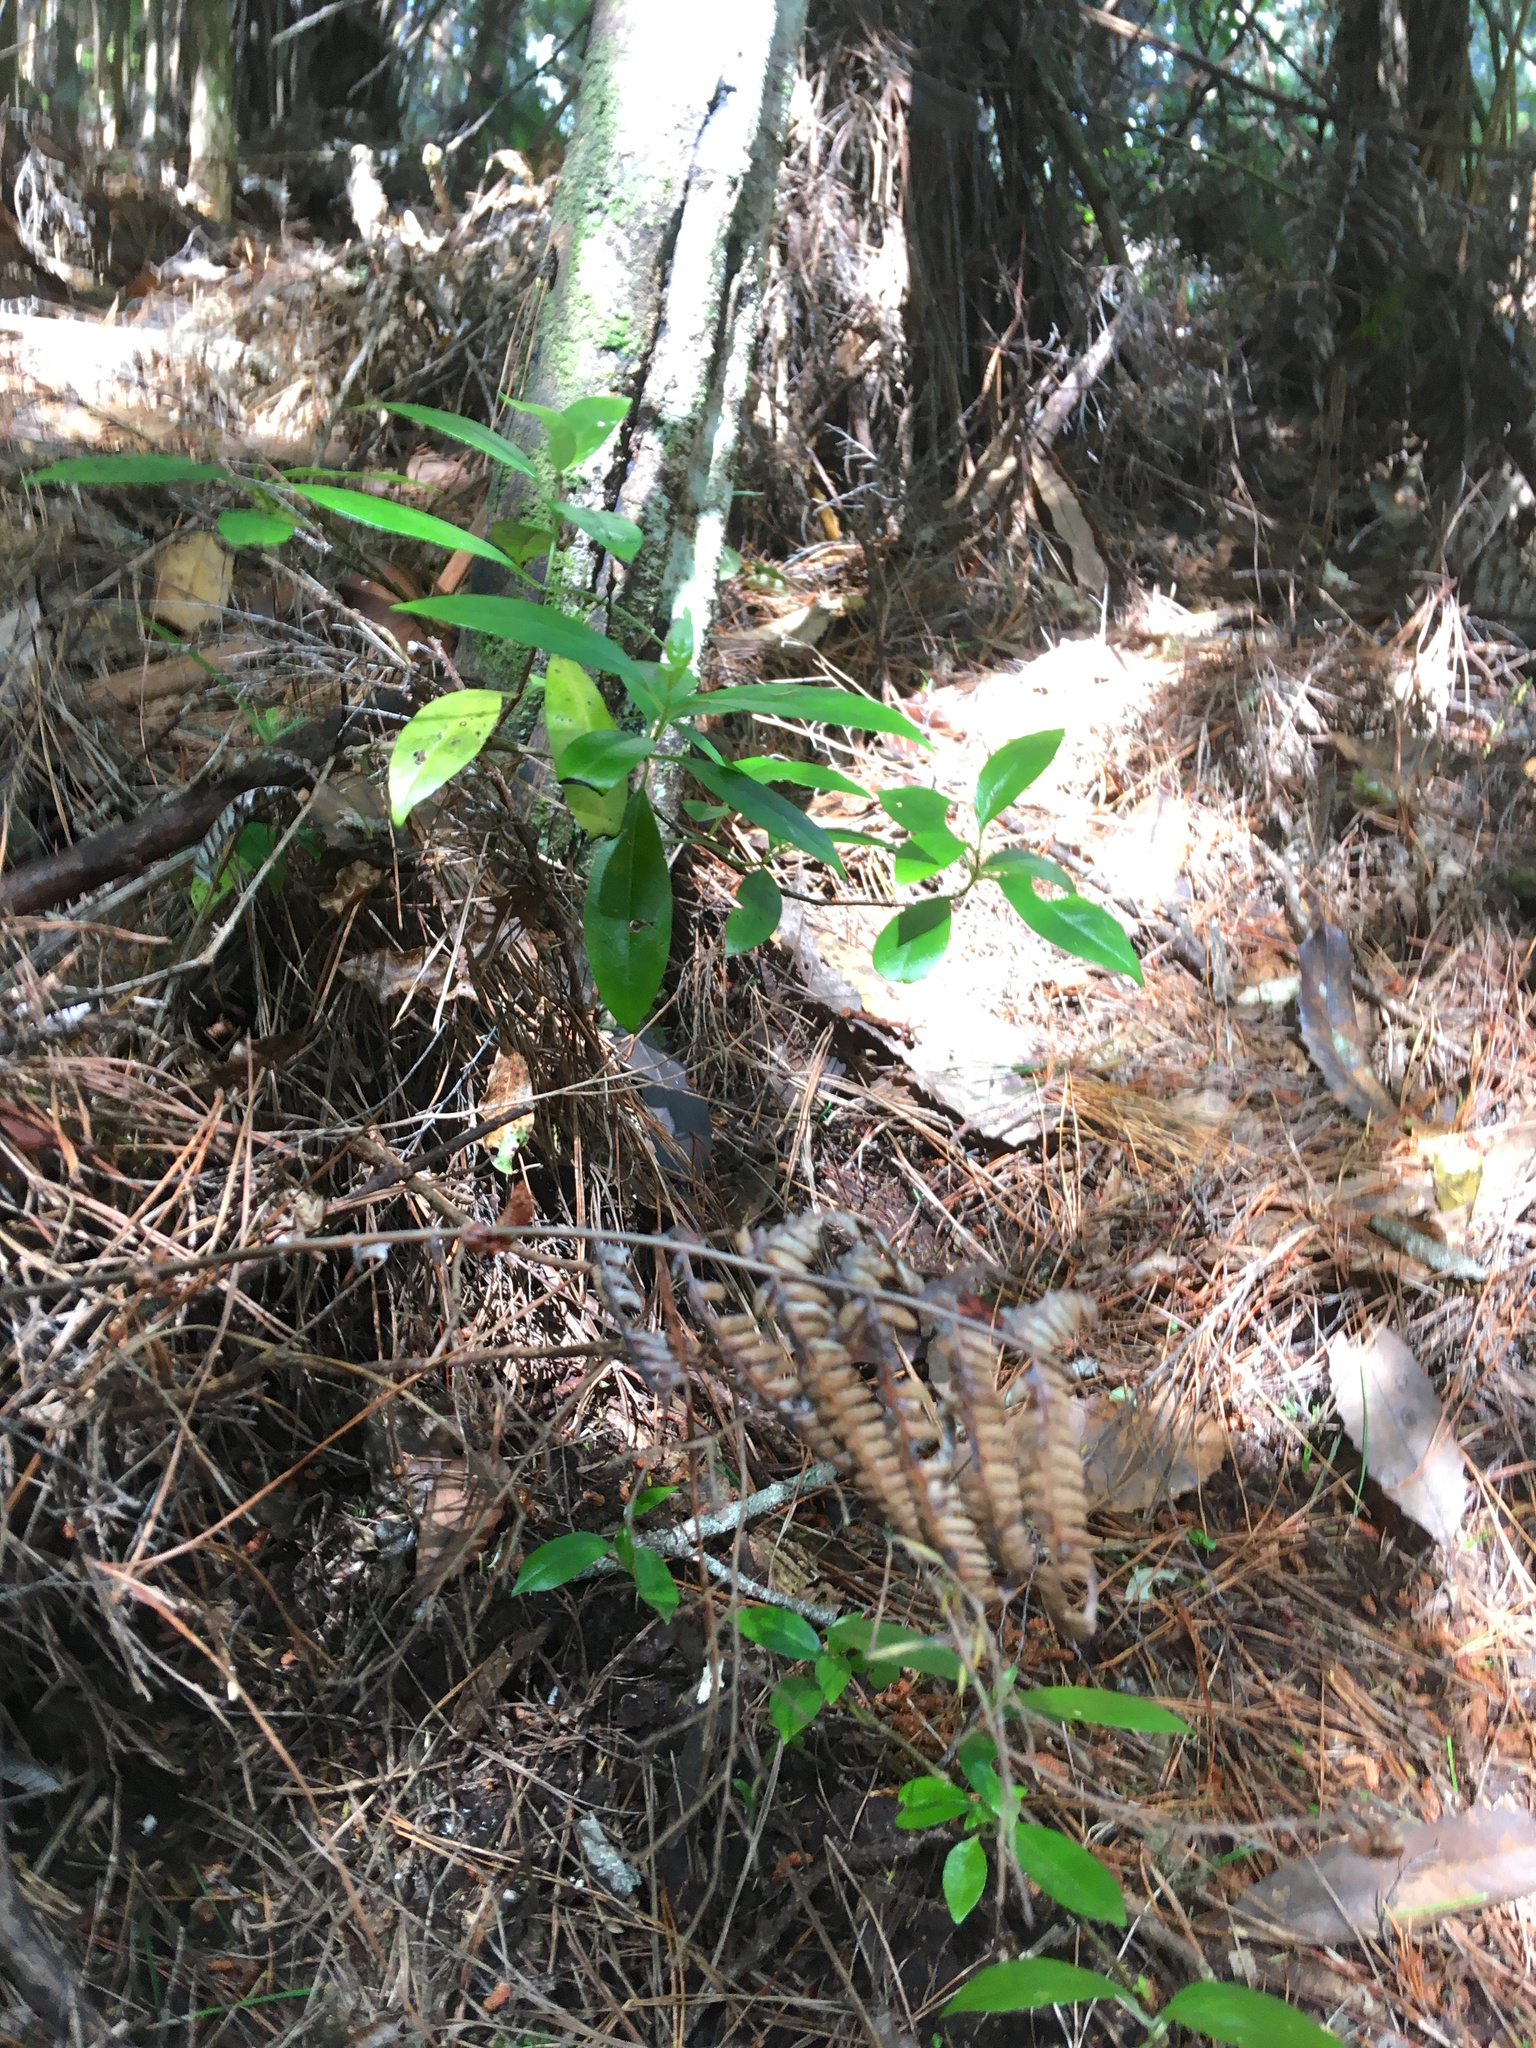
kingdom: Plantae
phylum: Tracheophyta
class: Magnoliopsida
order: Gentianales
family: Loganiaceae
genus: Geniostoma
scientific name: Geniostoma ligustrifolium
